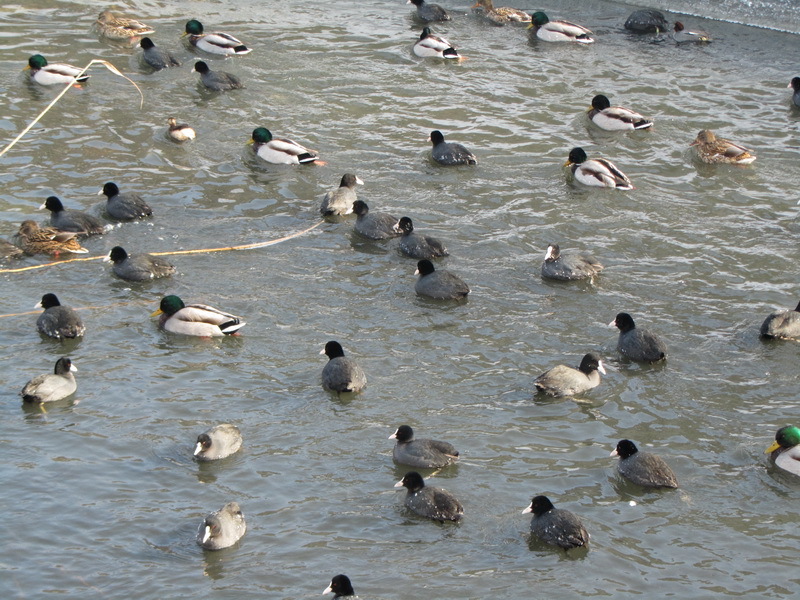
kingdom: Animalia
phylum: Chordata
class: Aves
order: Gruiformes
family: Rallidae
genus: Fulica
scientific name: Fulica atra
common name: Eurasian coot
